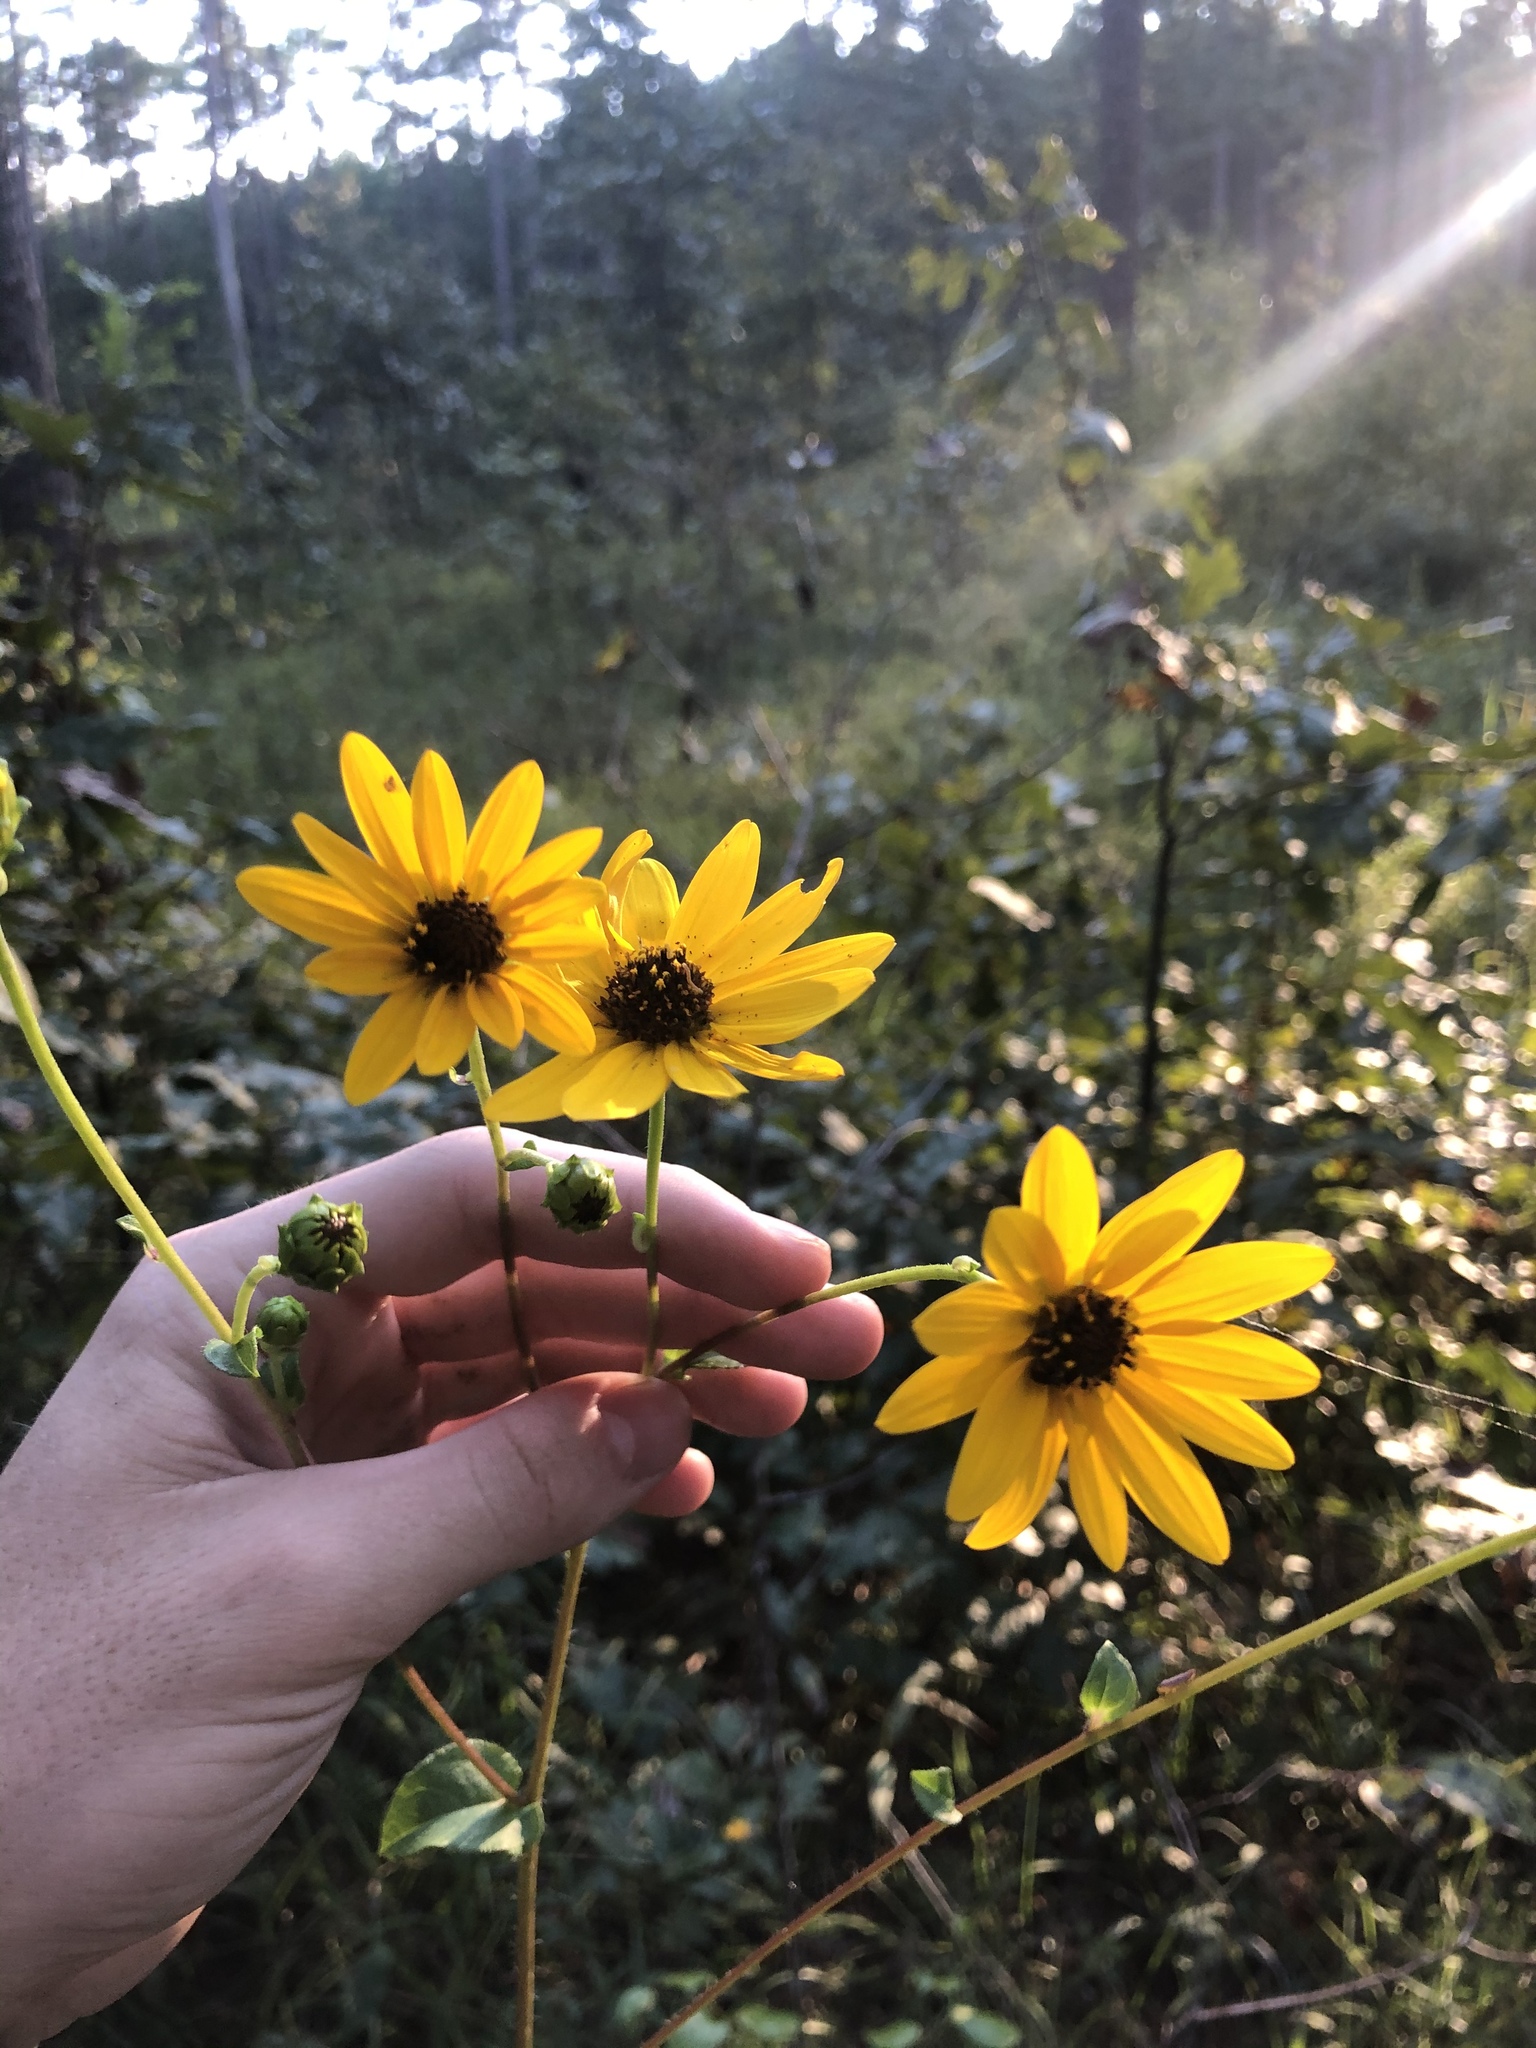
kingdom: Plantae
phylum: Tracheophyta
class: Magnoliopsida
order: Asterales
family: Asteraceae
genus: Helianthus
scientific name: Helianthus atrorubens
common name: Dark-eyed sunflower
